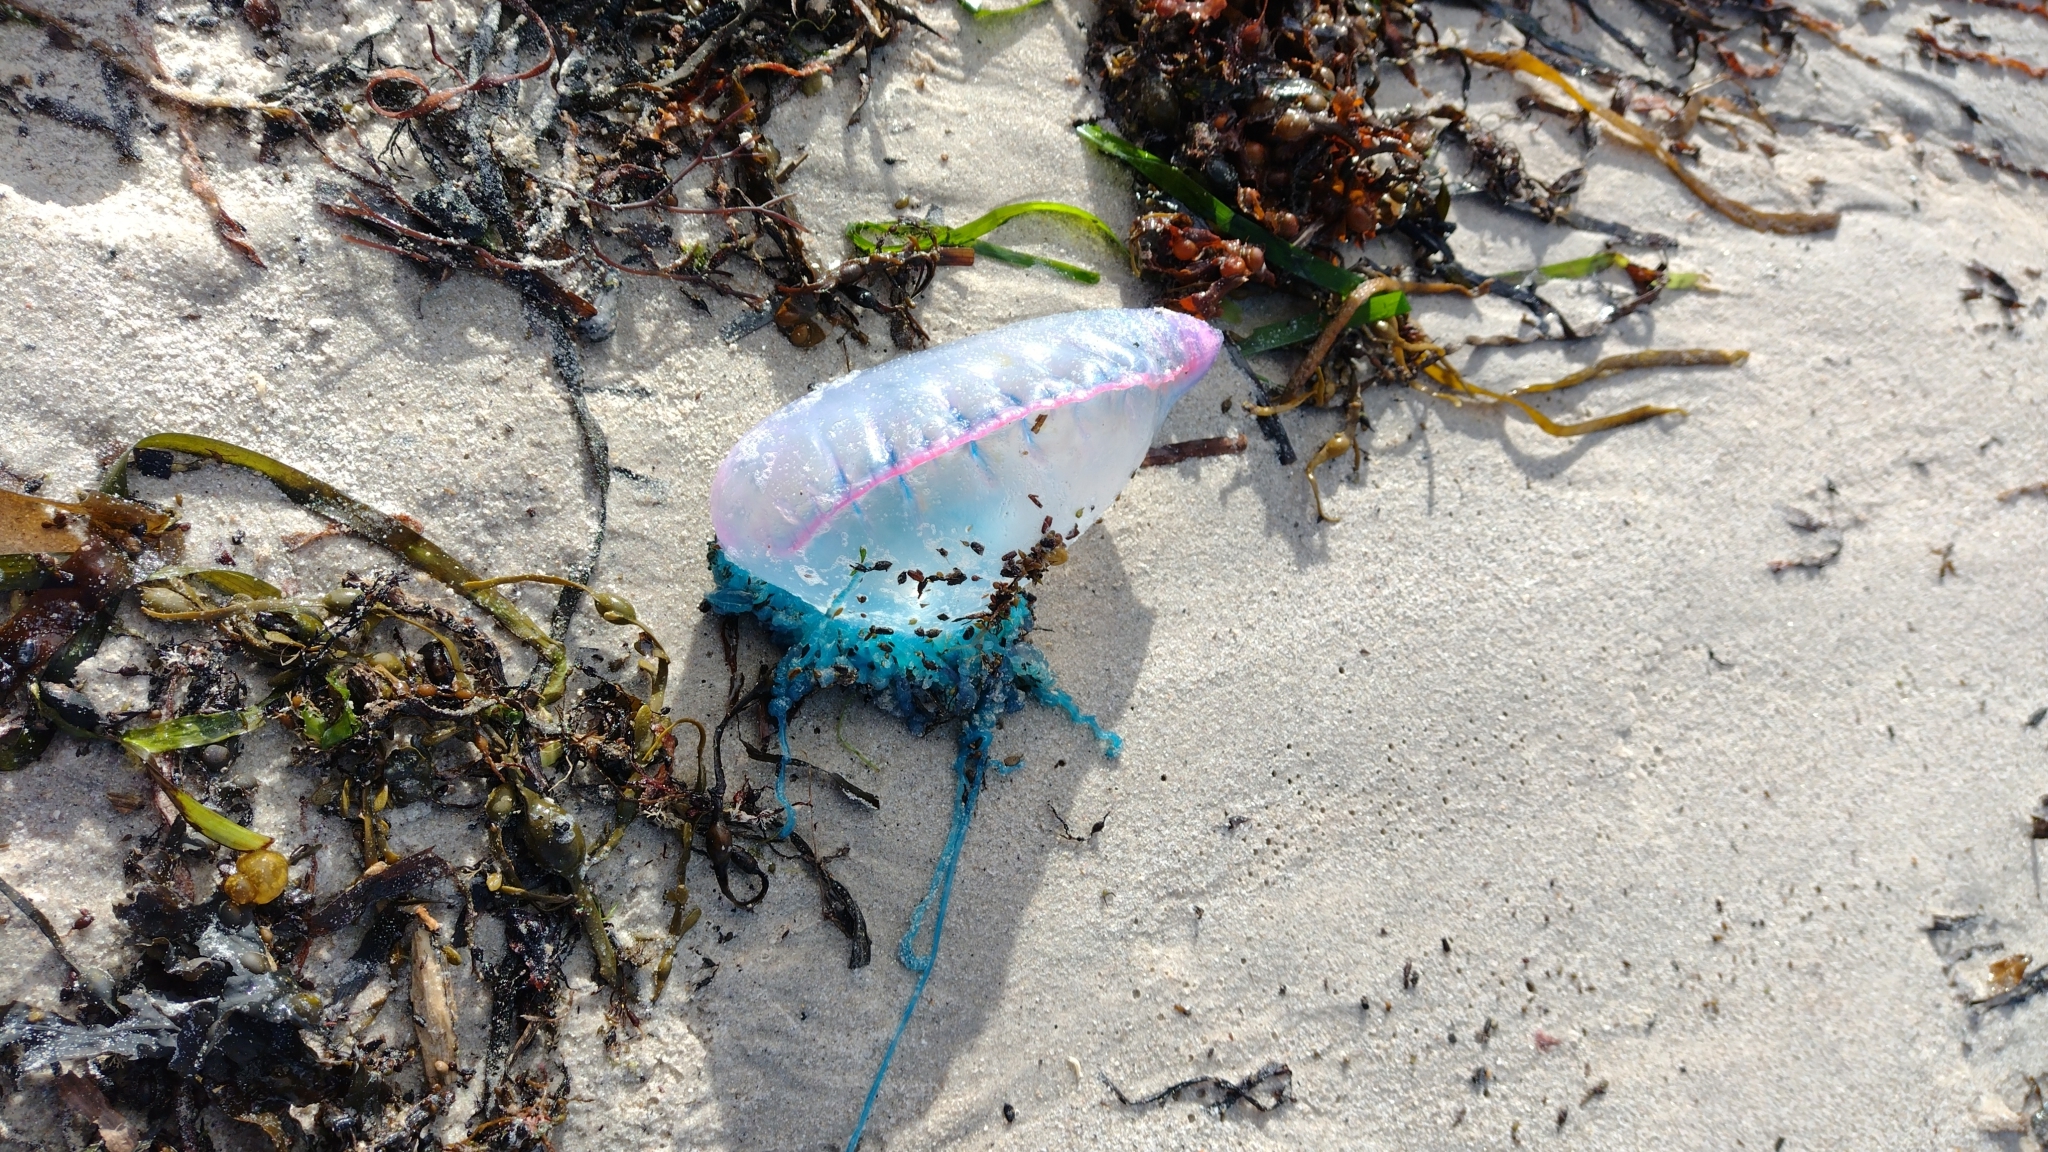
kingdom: Animalia
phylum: Cnidaria
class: Hydrozoa
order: Siphonophorae
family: Physaliidae
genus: Physalia
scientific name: Physalia physalis
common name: Portuguese man-of-war
